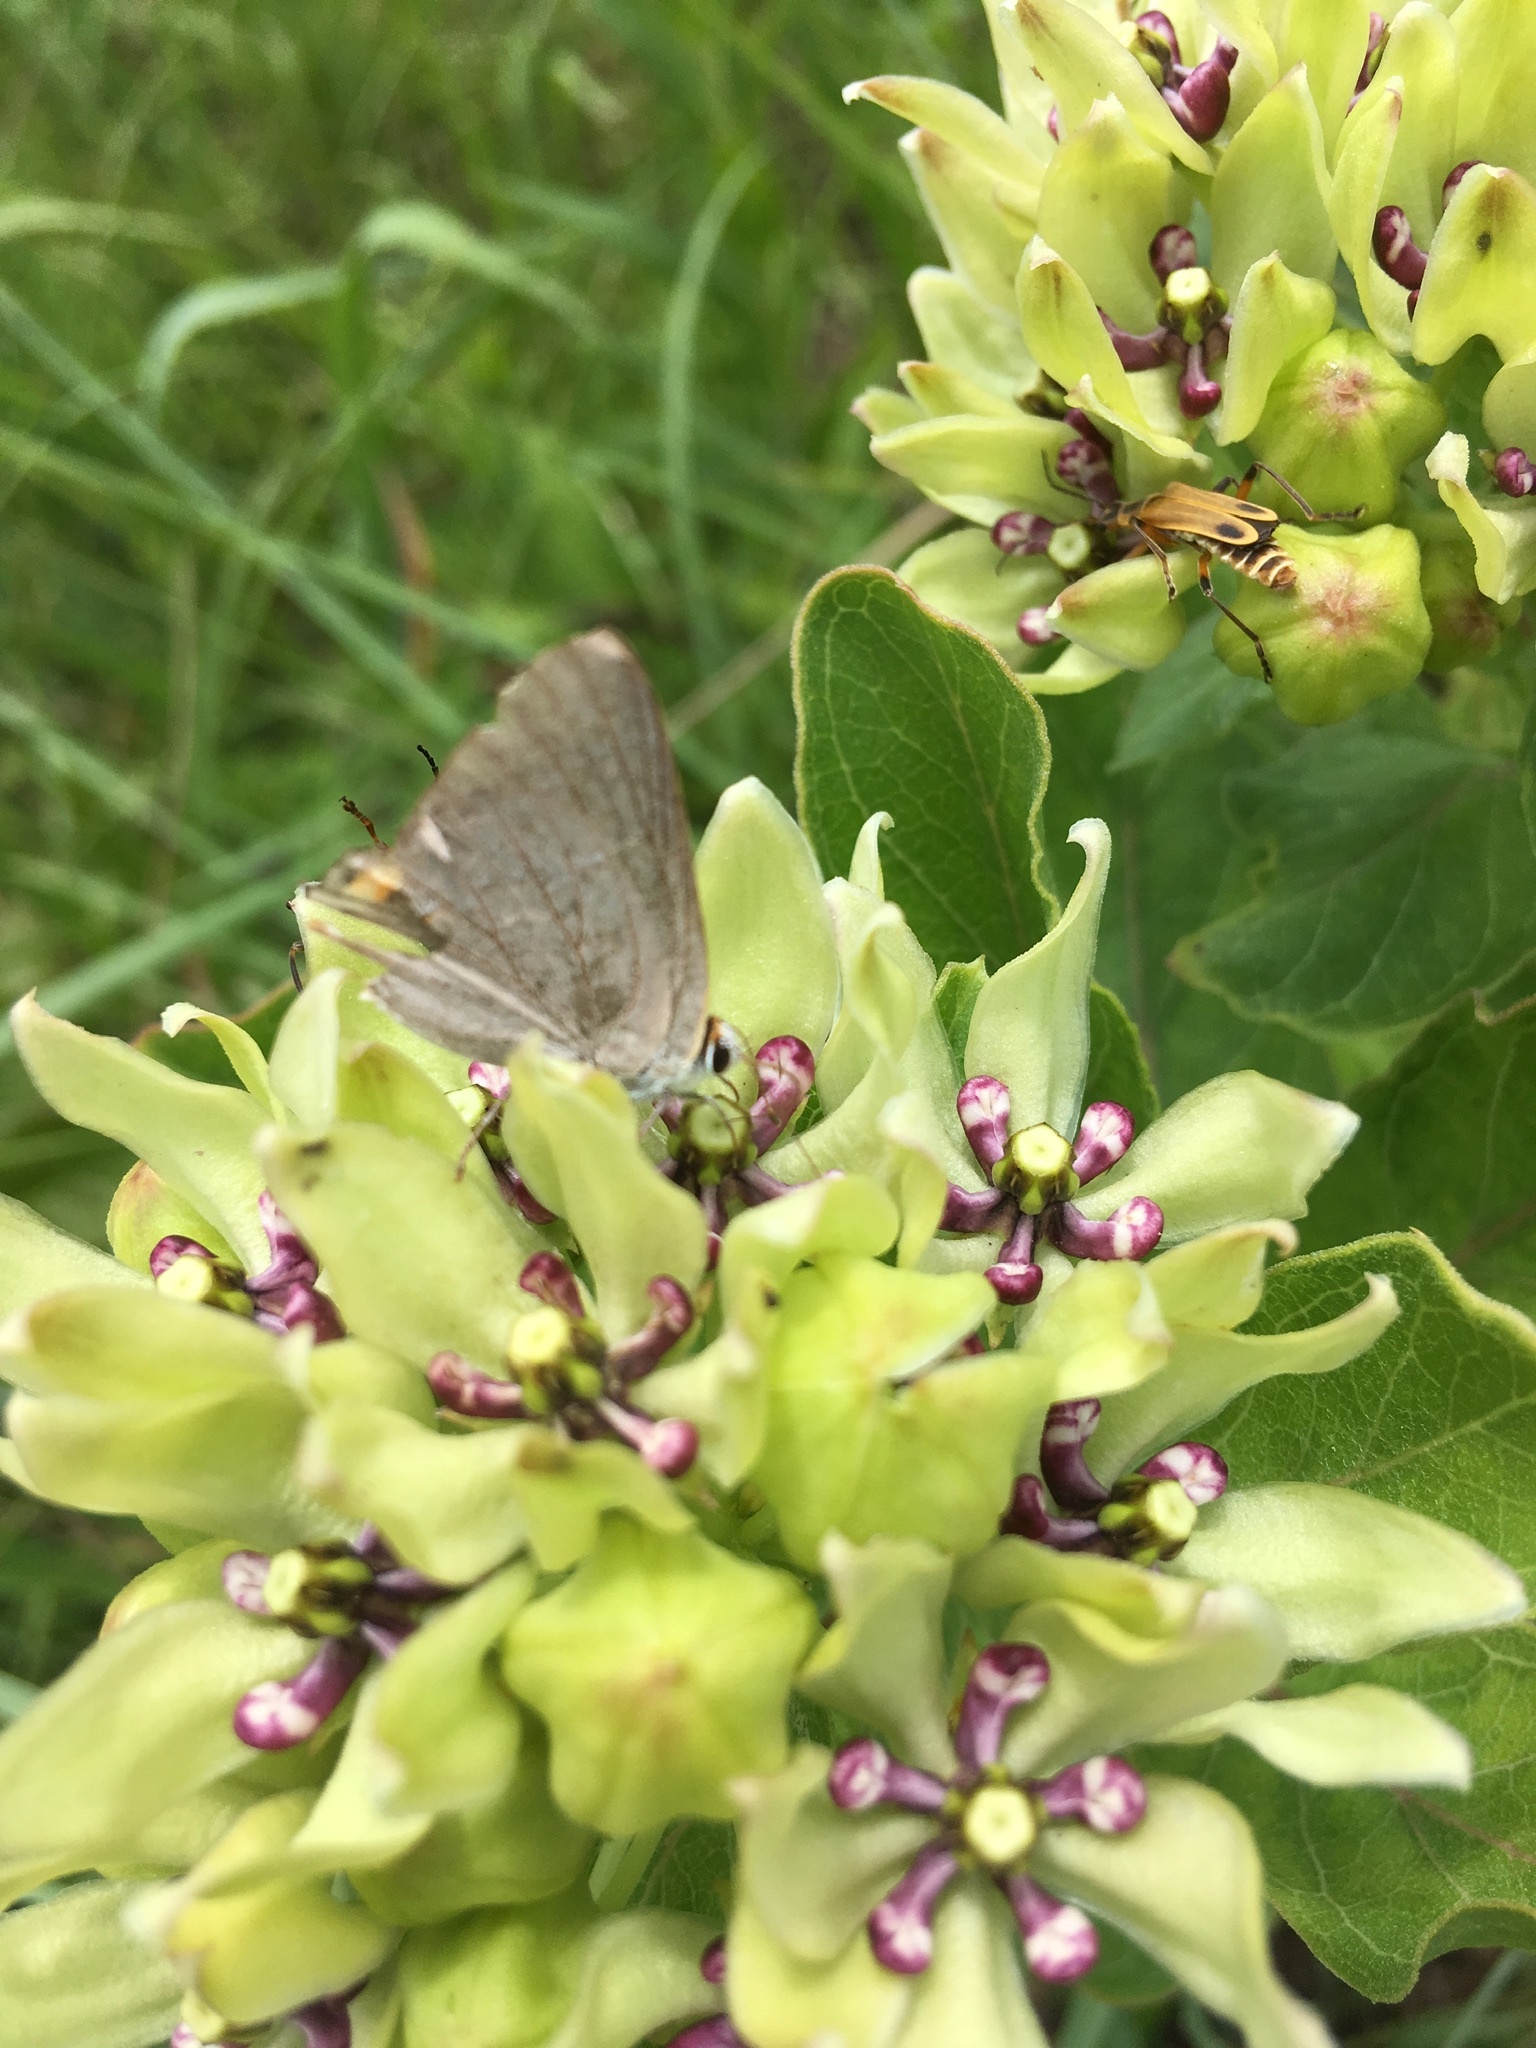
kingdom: Animalia
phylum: Arthropoda
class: Insecta
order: Lepidoptera
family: Lycaenidae
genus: Strymon
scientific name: Strymon melinus
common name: Gray hairstreak
